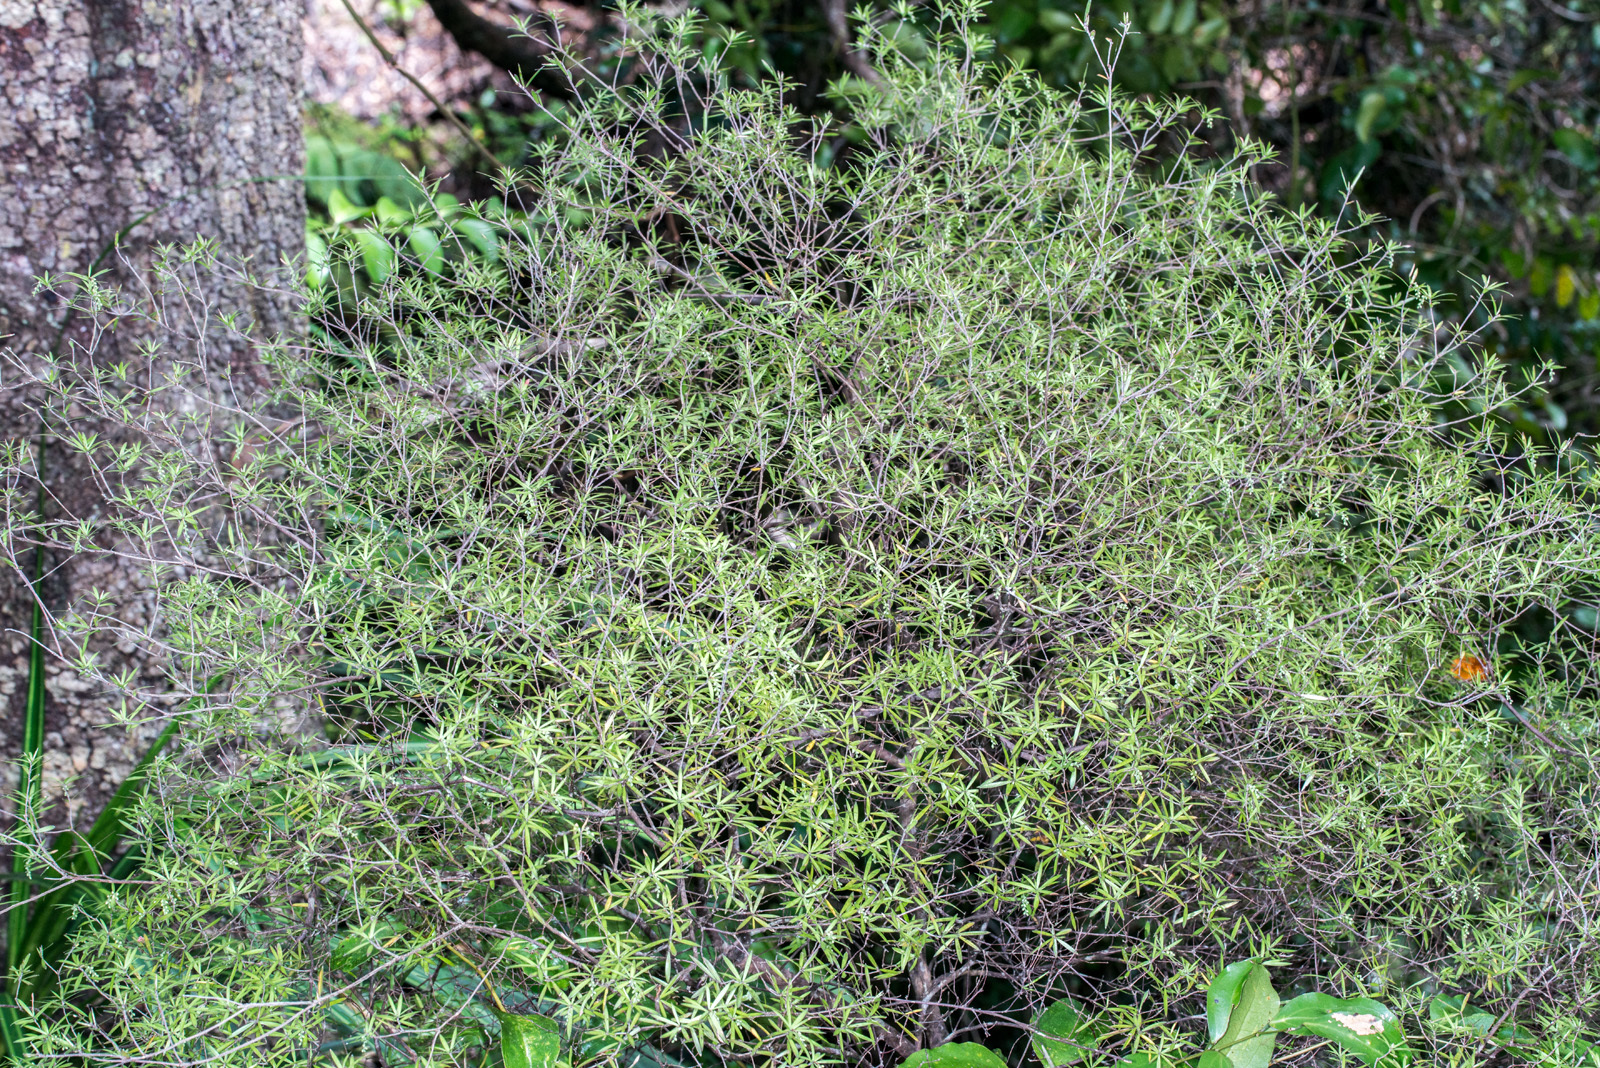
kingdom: Plantae
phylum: Tracheophyta
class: Magnoliopsida
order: Ericales
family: Ericaceae
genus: Leucopogon
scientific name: Leucopogon fasciculatus
